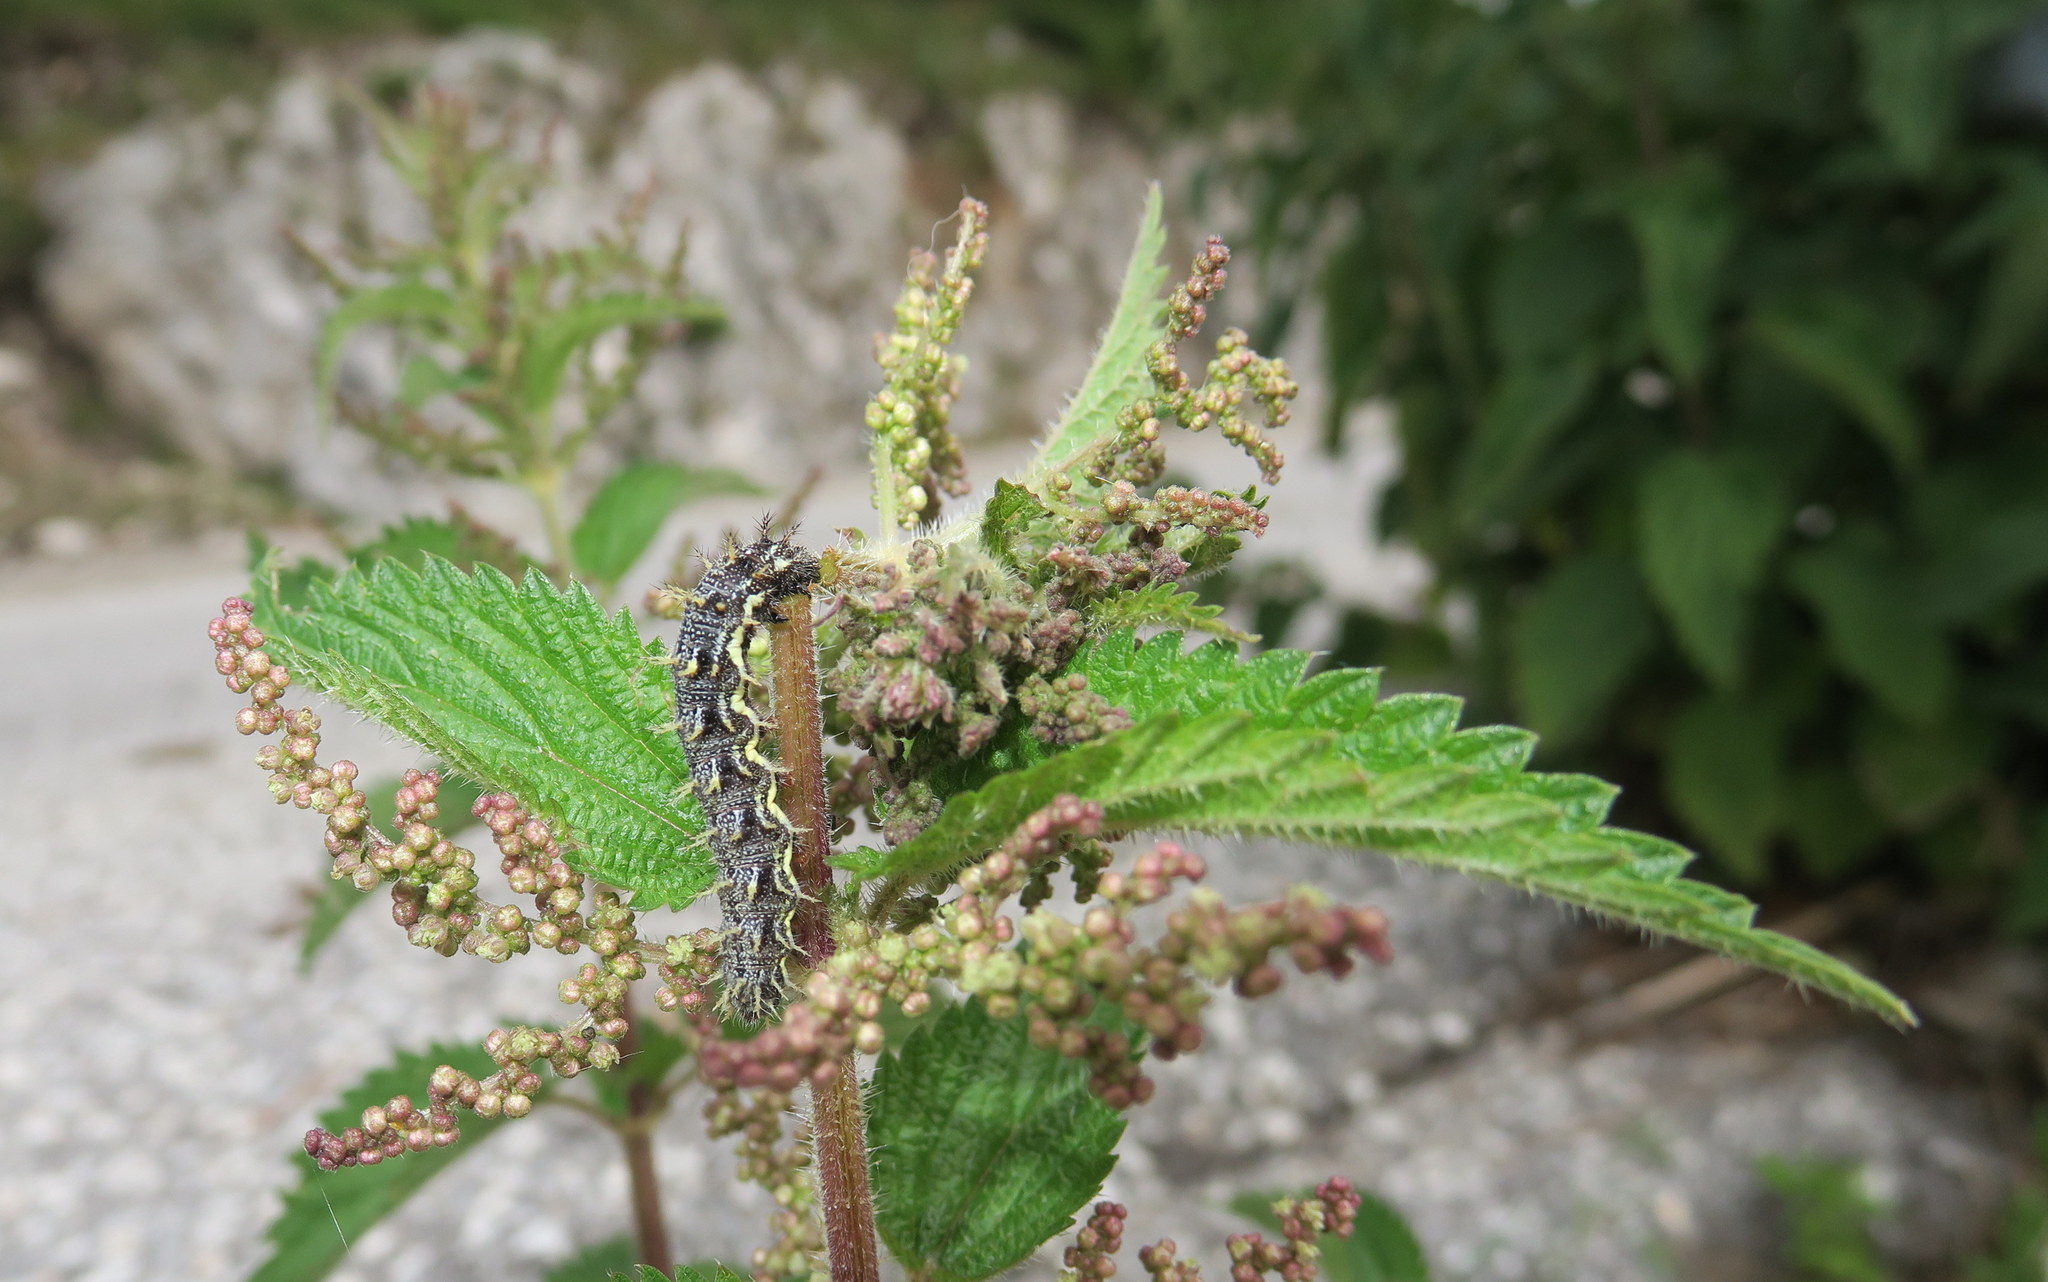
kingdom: Animalia
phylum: Arthropoda
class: Insecta
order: Lepidoptera
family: Nymphalidae
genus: Vanessa
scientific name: Vanessa atalanta
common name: Red admiral
